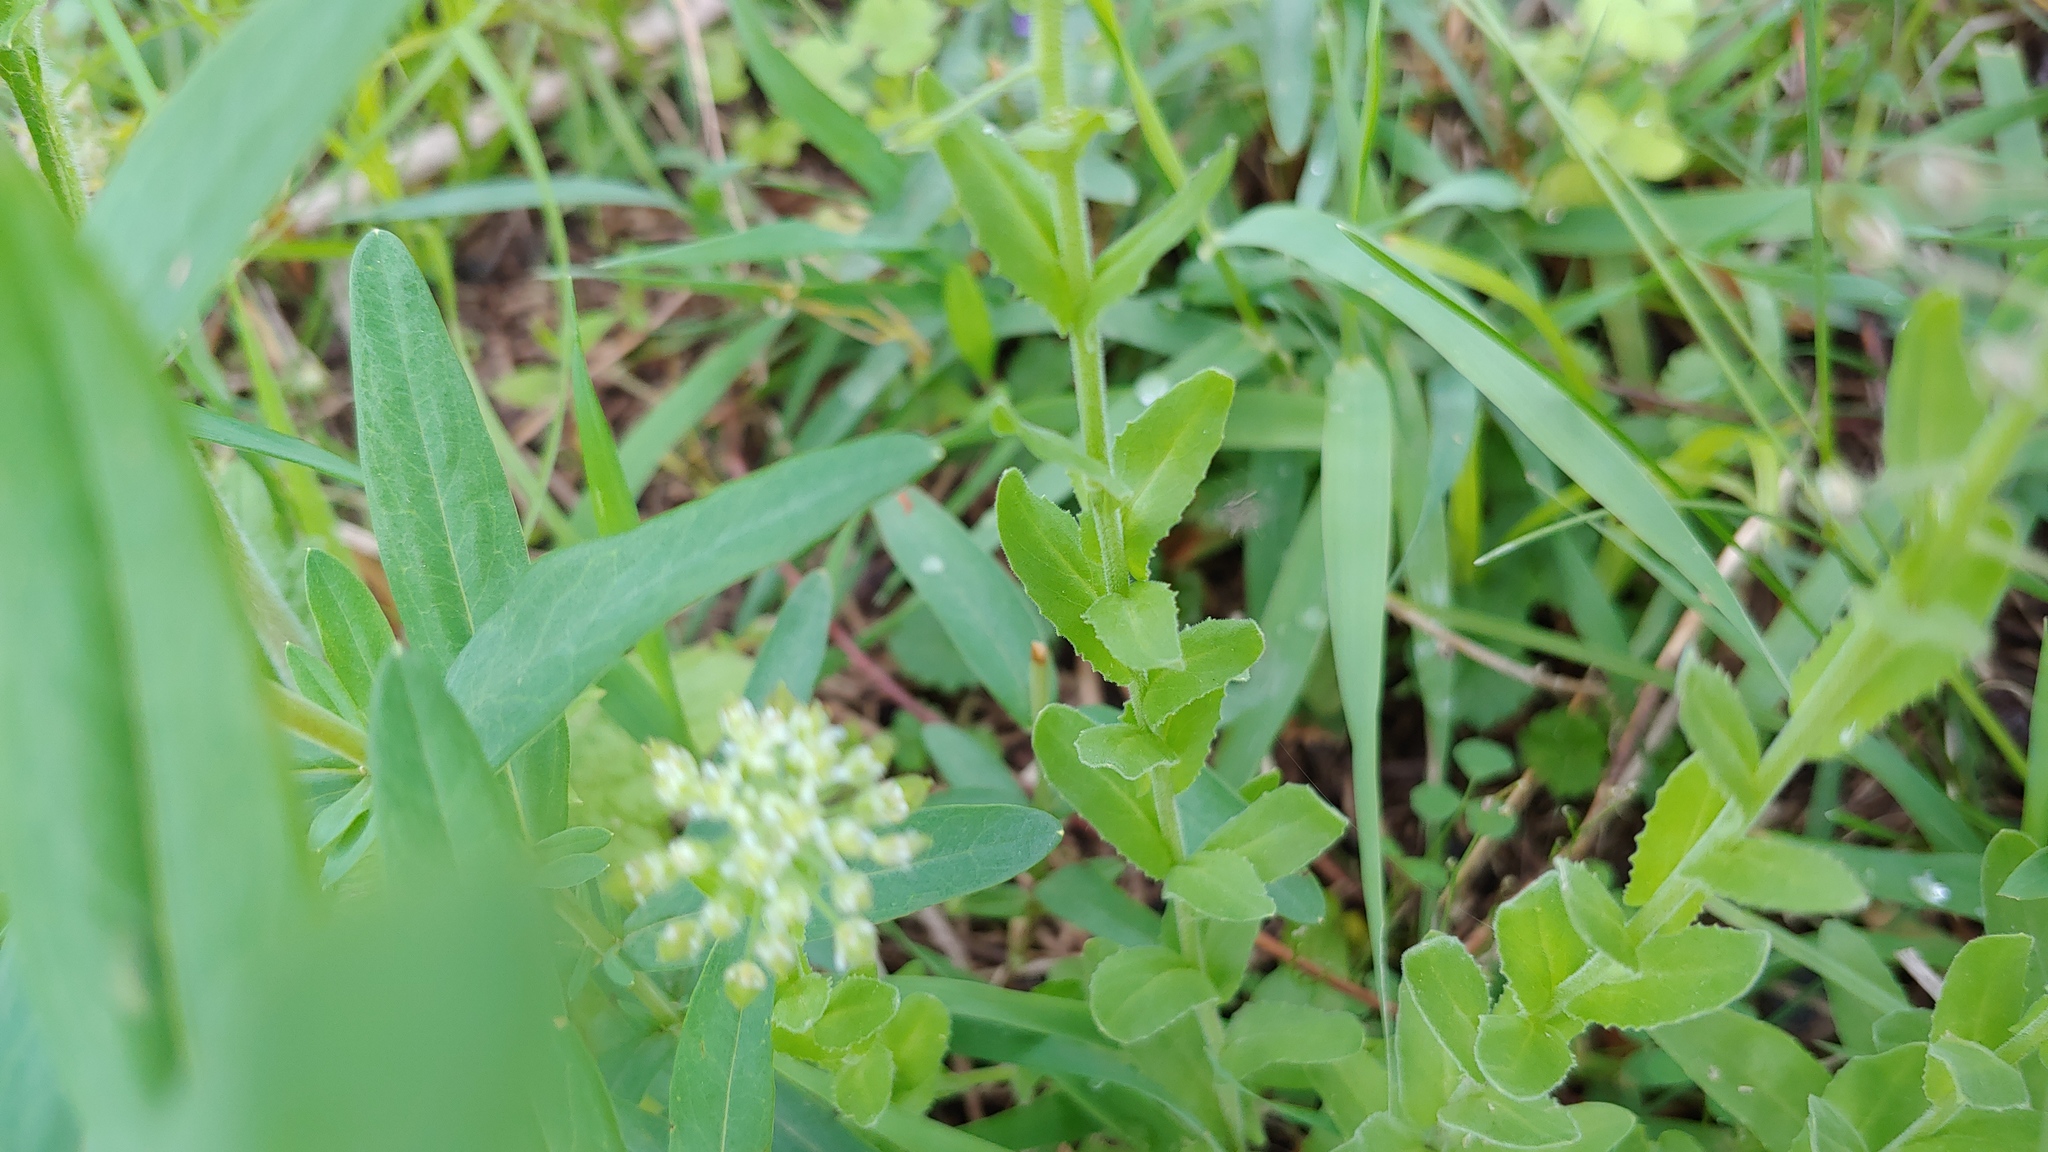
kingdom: Plantae
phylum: Tracheophyta
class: Magnoliopsida
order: Brassicales
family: Brassicaceae
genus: Lepidium
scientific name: Lepidium campestre
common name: Field pepperwort
